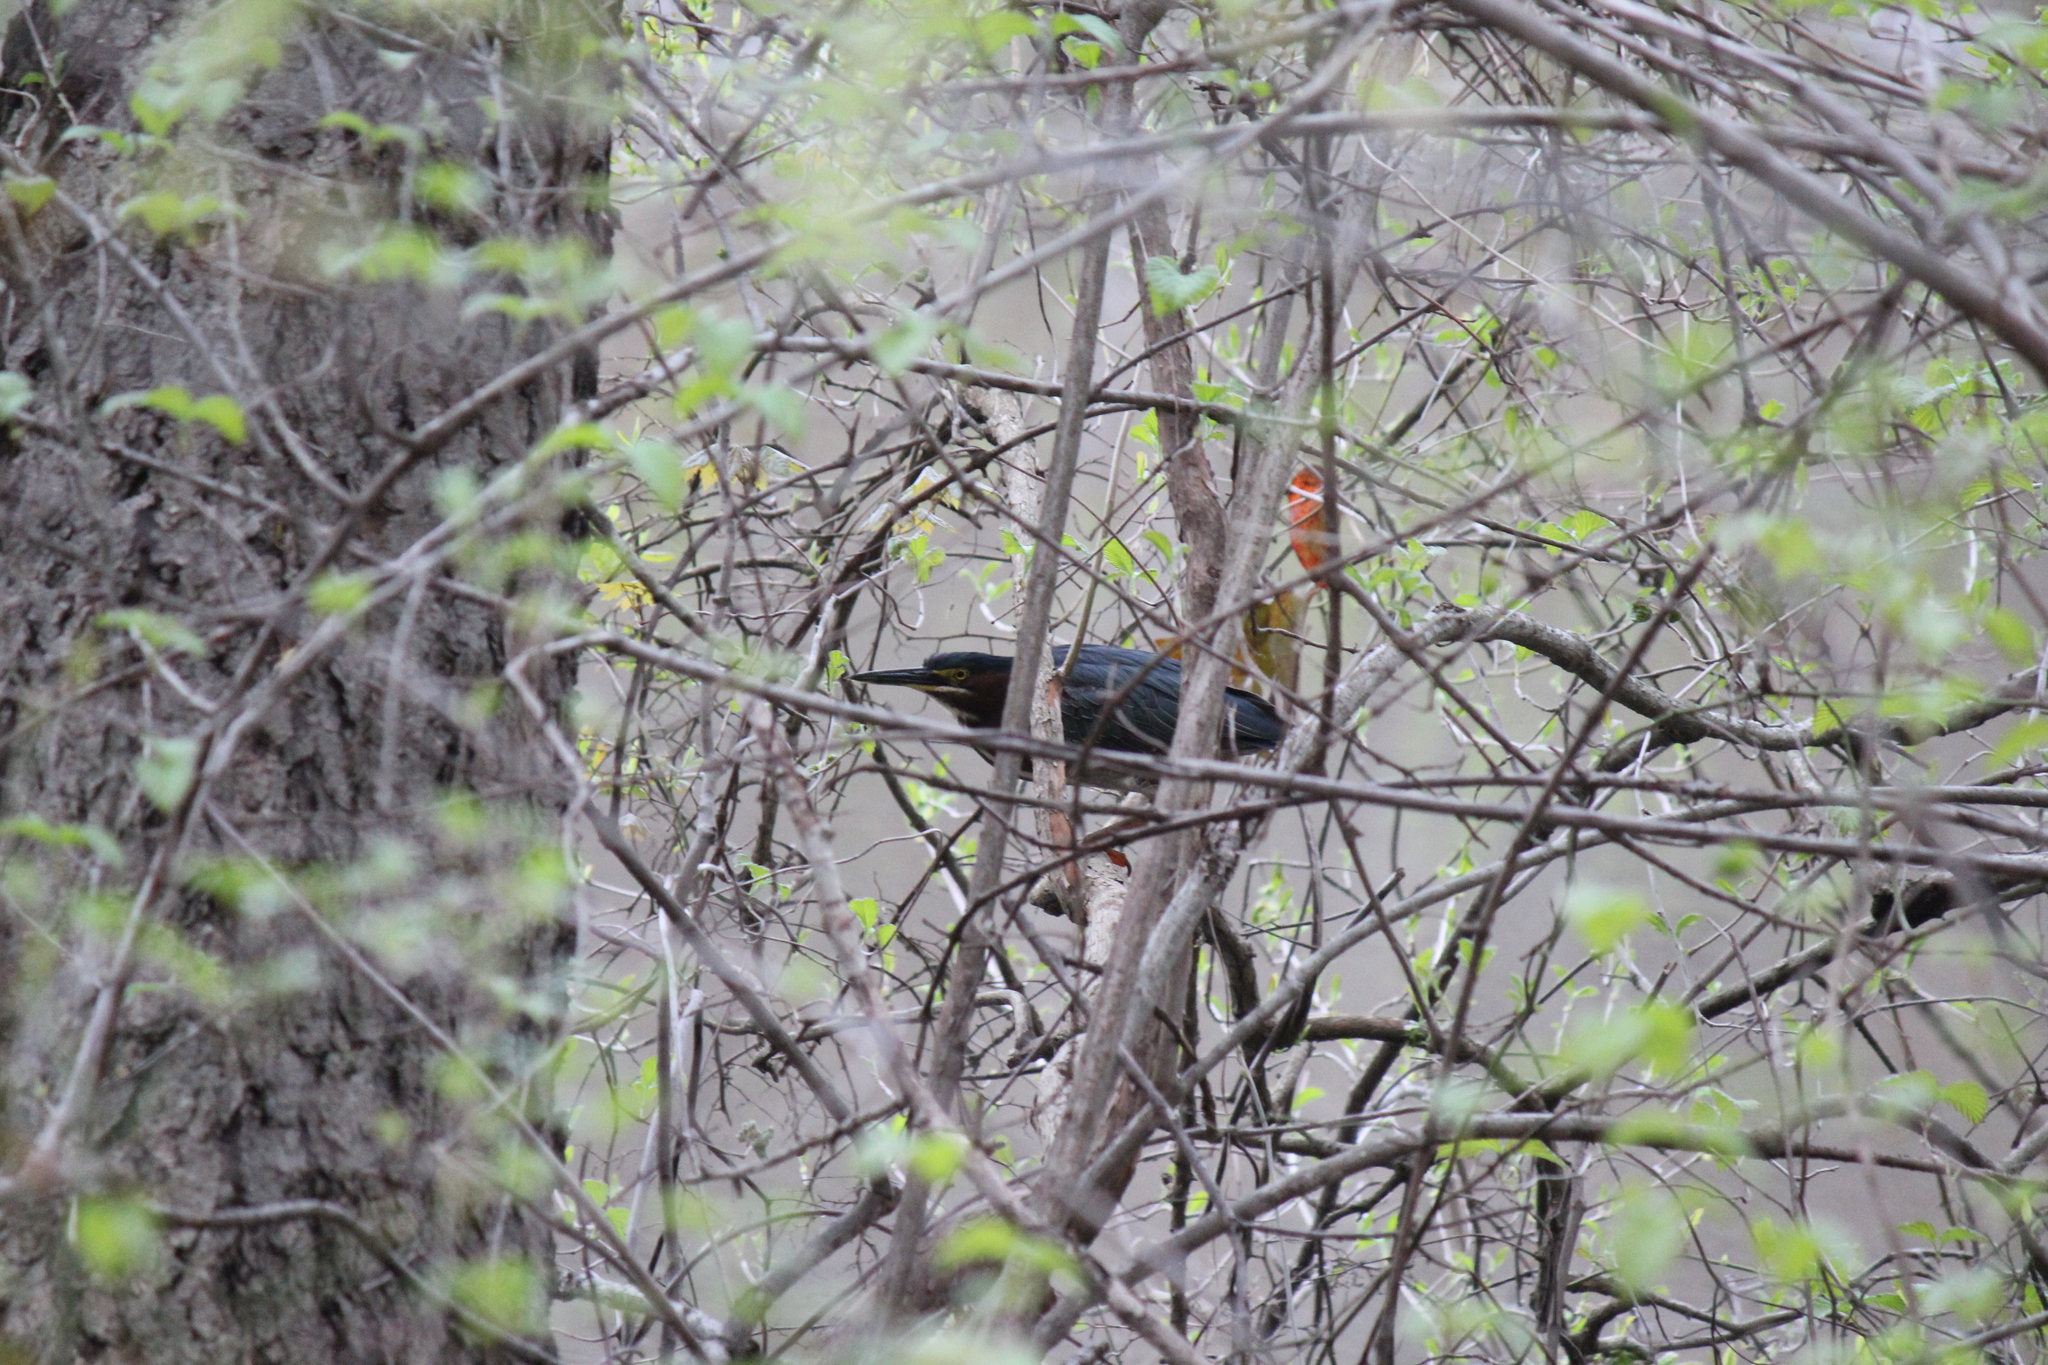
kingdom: Animalia
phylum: Chordata
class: Aves
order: Pelecaniformes
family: Ardeidae
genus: Butorides
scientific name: Butorides virescens
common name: Green heron
